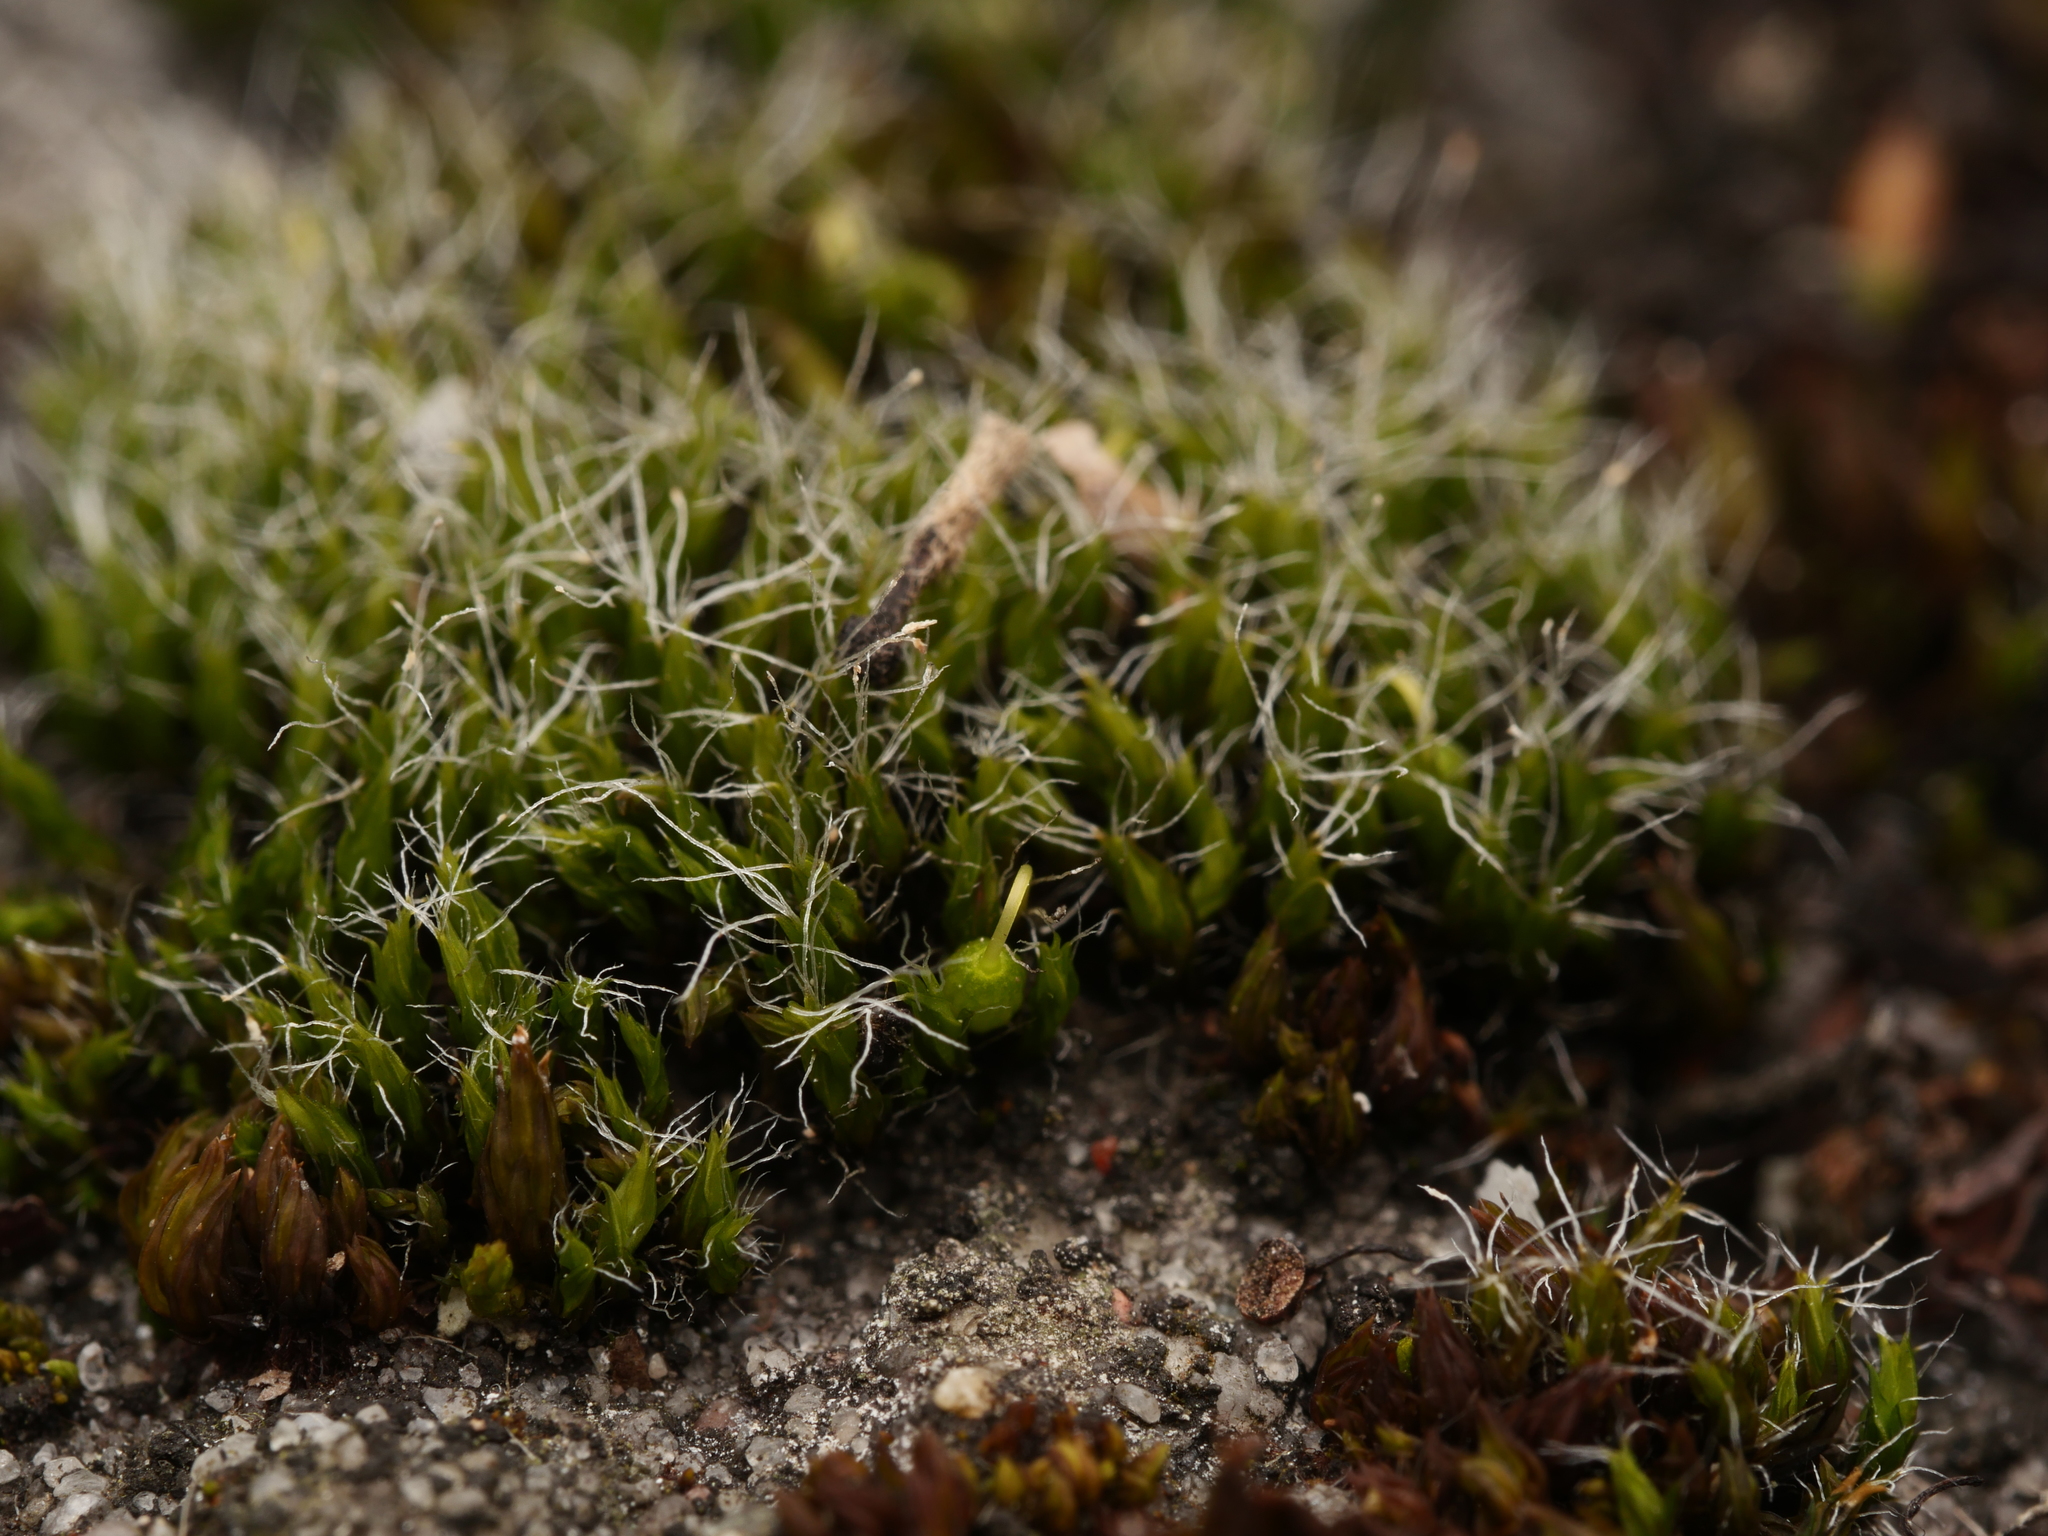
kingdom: Plantae
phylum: Bryophyta
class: Bryopsida
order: Grimmiales
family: Grimmiaceae
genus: Grimmia
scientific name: Grimmia pulvinata
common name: Grey-cushioned grimmia
